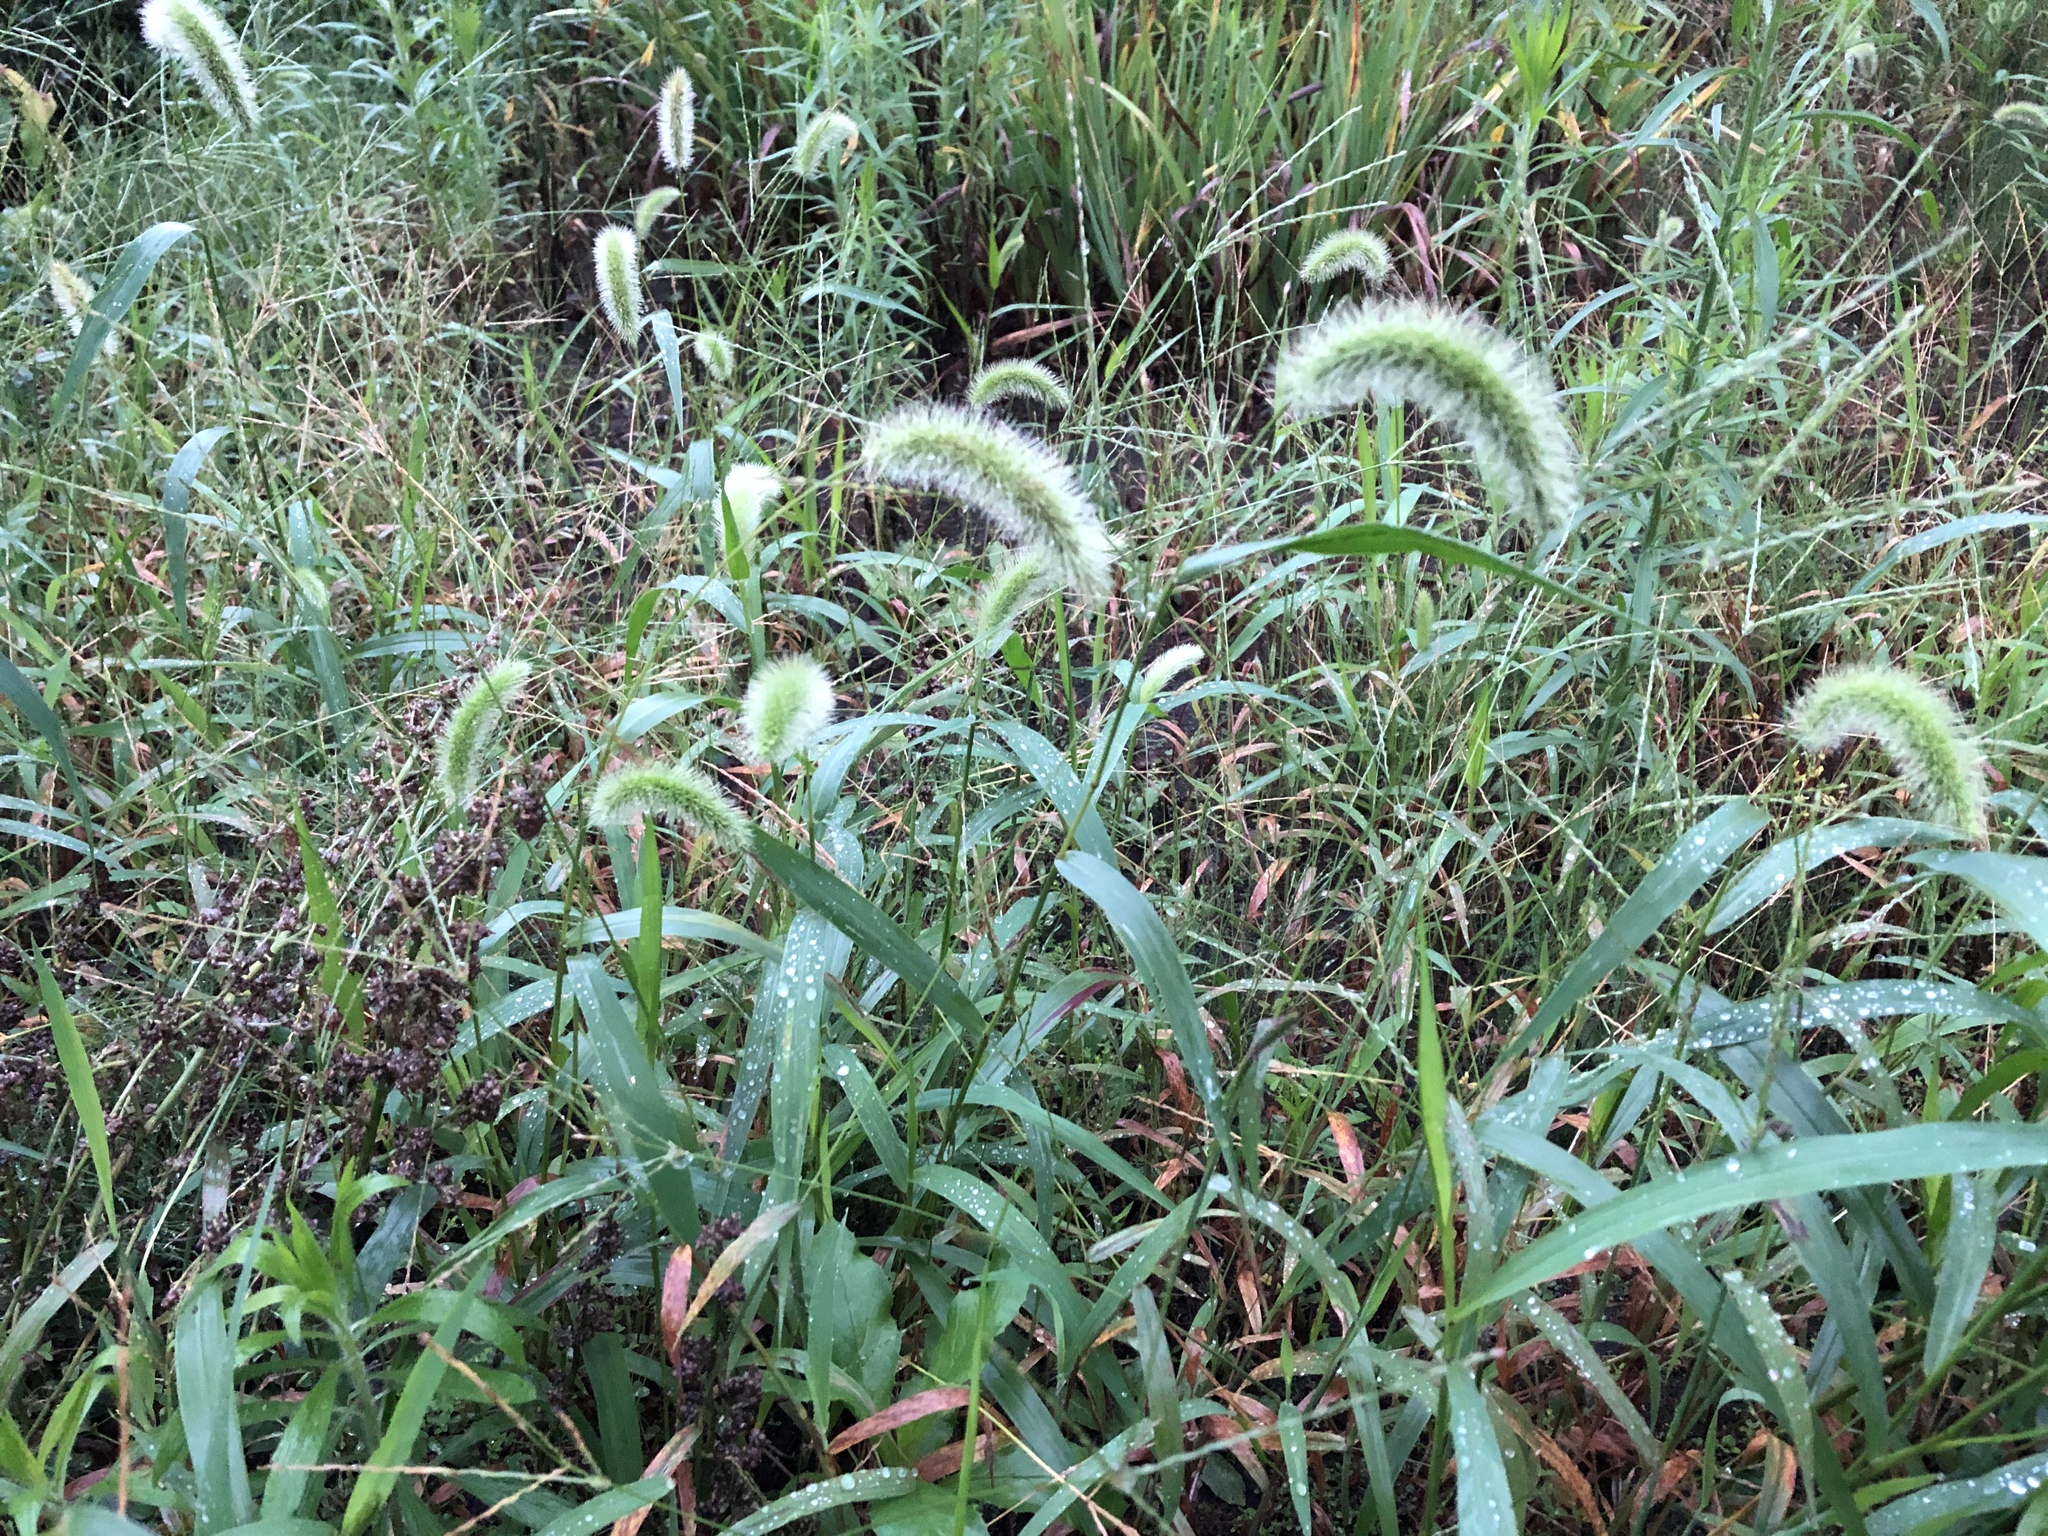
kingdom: Plantae
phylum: Tracheophyta
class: Liliopsida
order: Poales
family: Poaceae
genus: Setaria
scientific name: Setaria viridis
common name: Green bristlegrass
